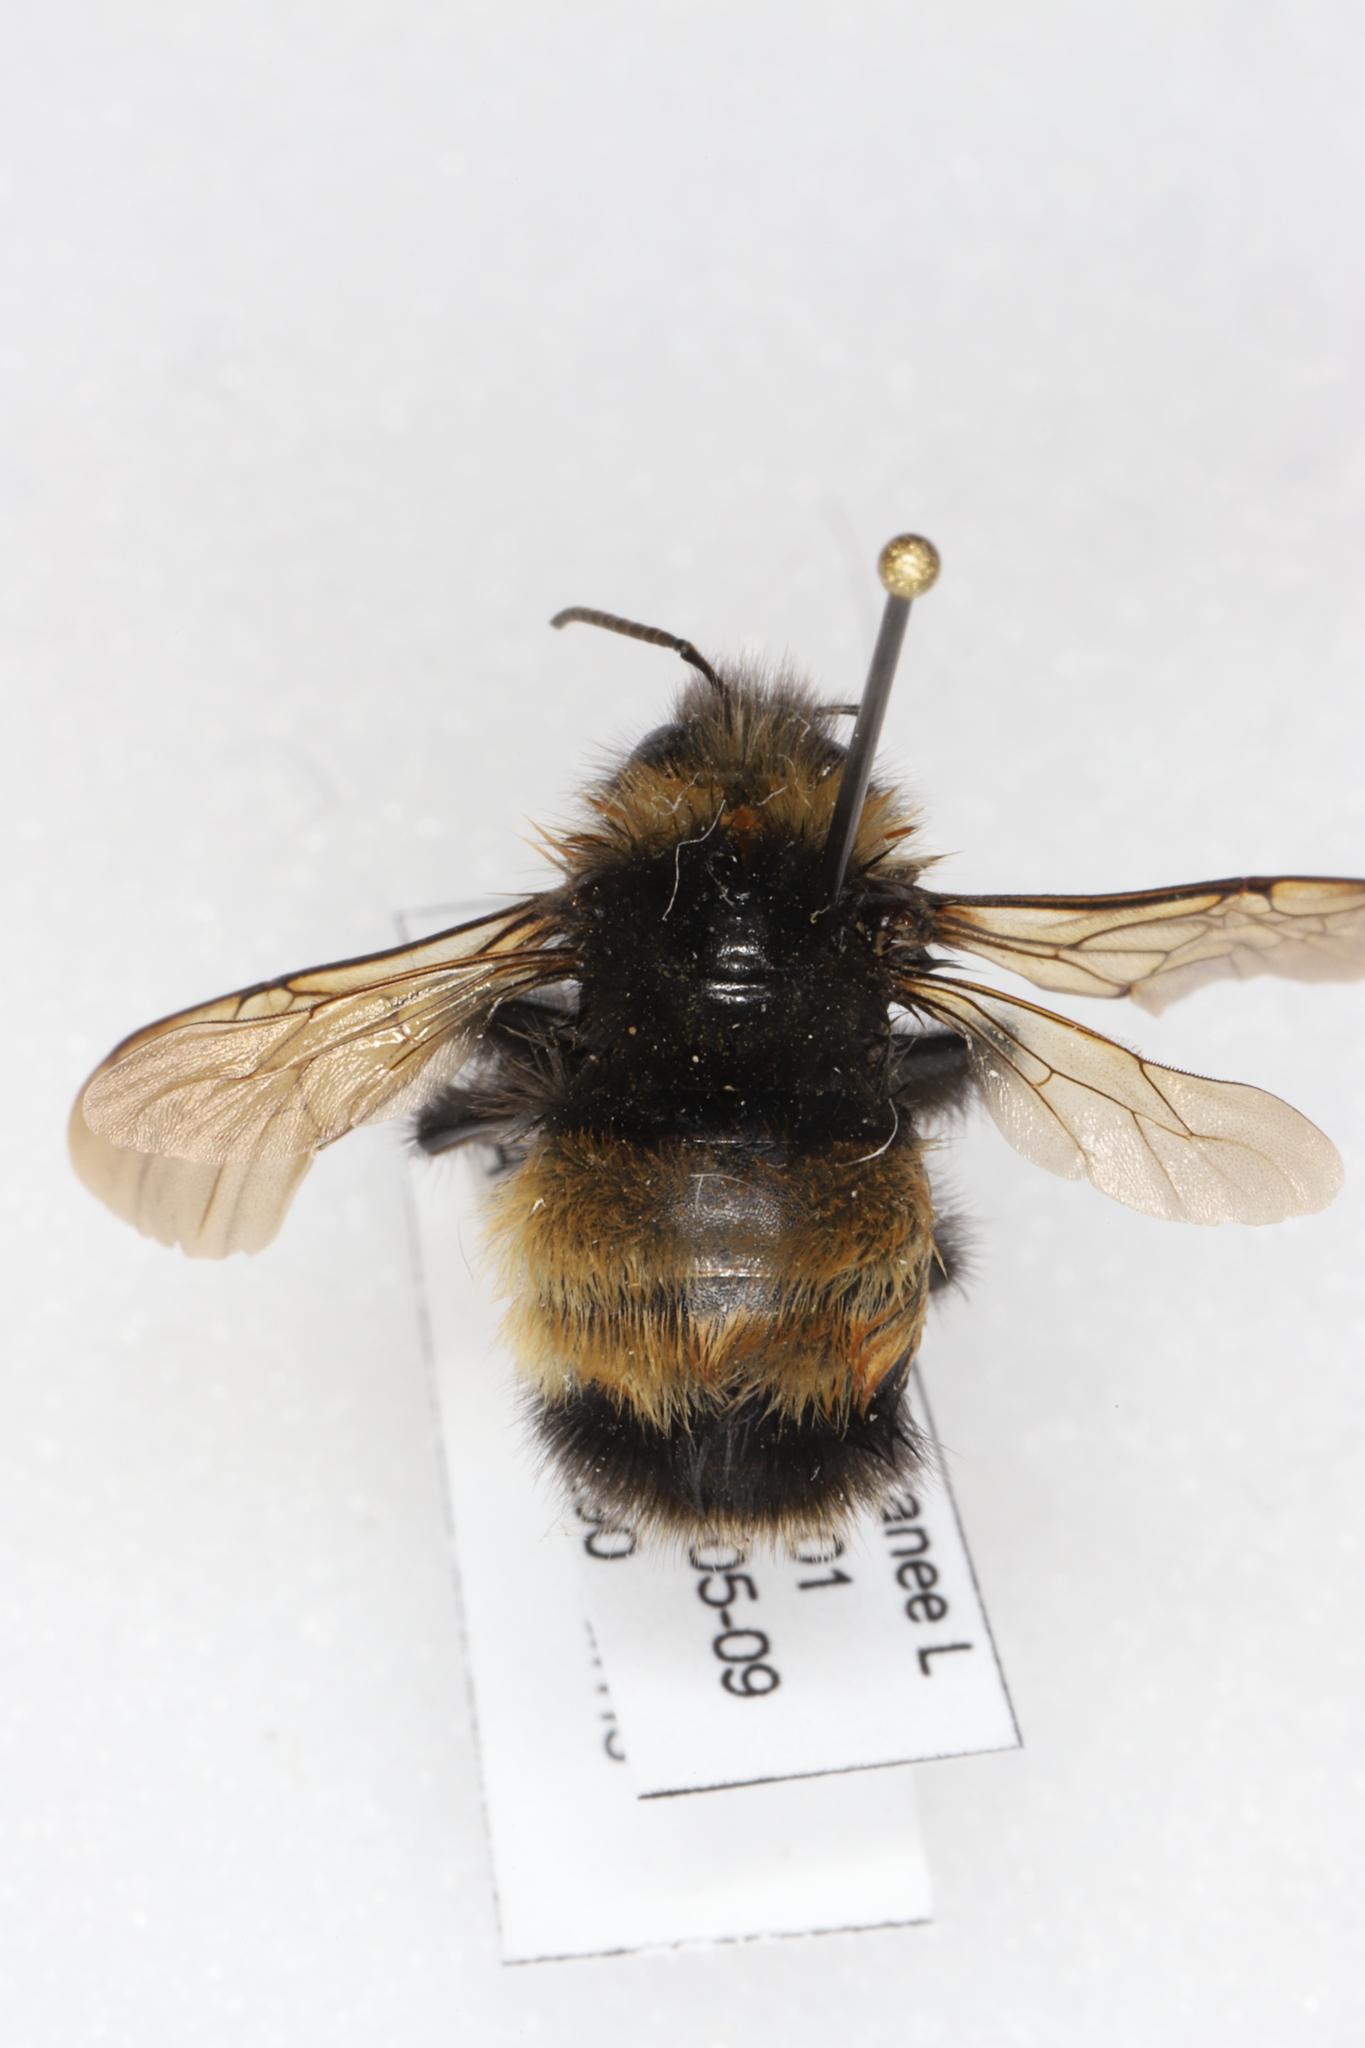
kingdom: Animalia
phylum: Arthropoda
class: Insecta
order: Hymenoptera
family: Apidae
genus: Bombus
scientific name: Bombus terricola
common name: Yellow-banded bumble bee
